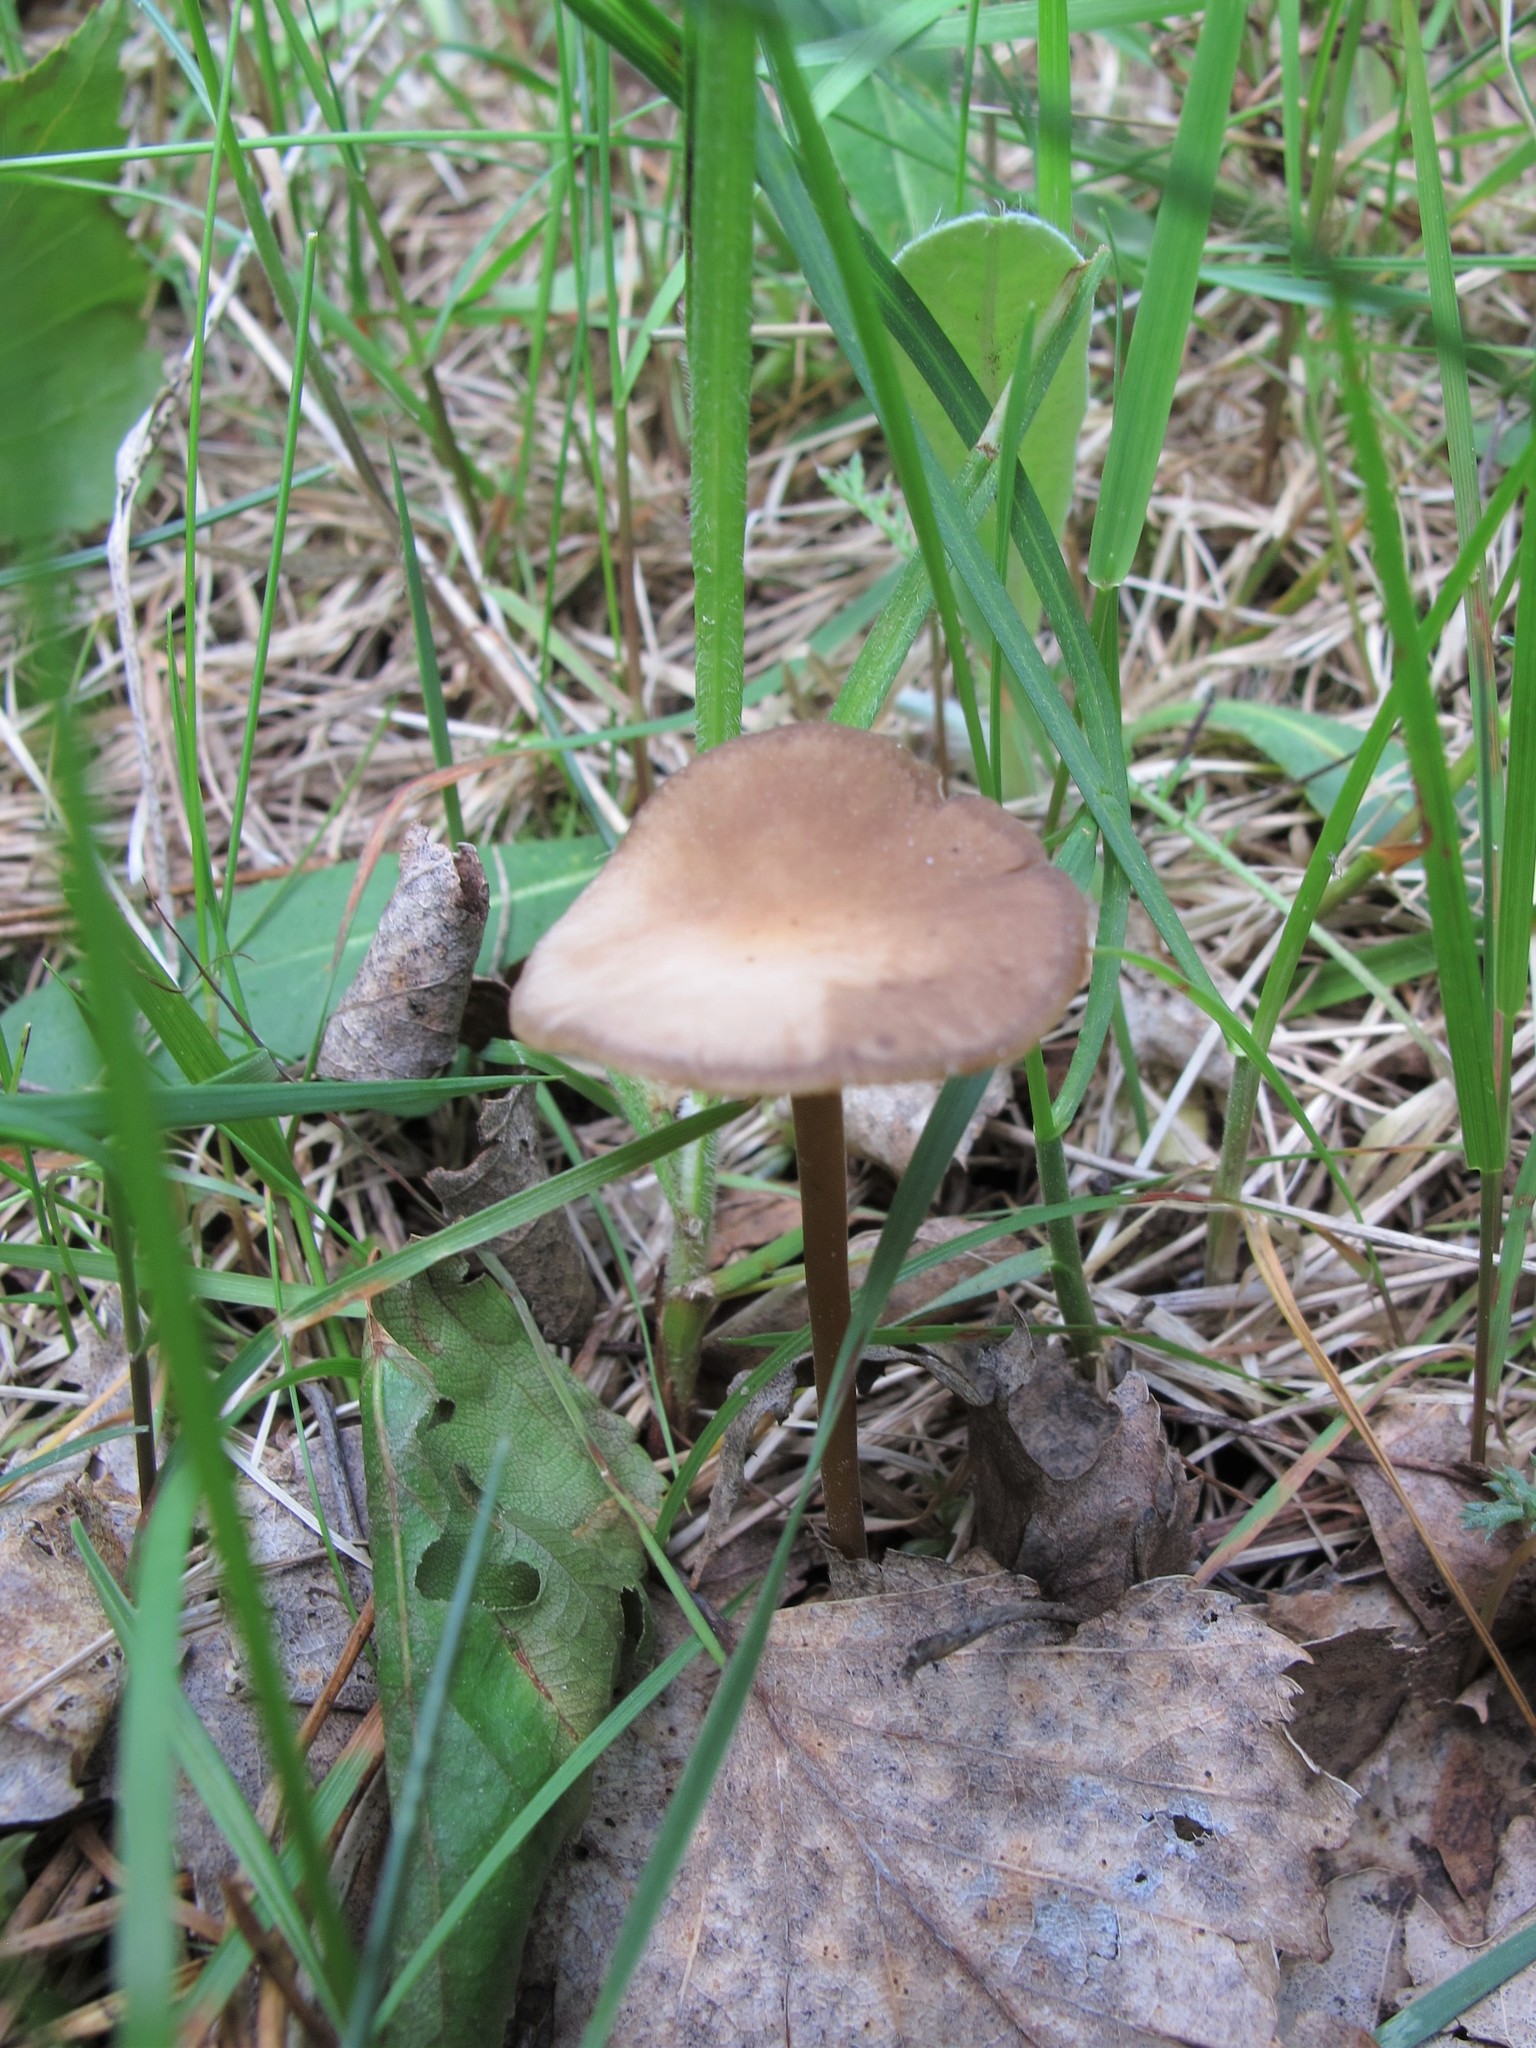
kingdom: Fungi
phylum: Basidiomycota
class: Agaricomycetes
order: Agaricales
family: Marasmiaceae
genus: Marasmius
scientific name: Marasmius oreades
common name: Fairy ring champignon
